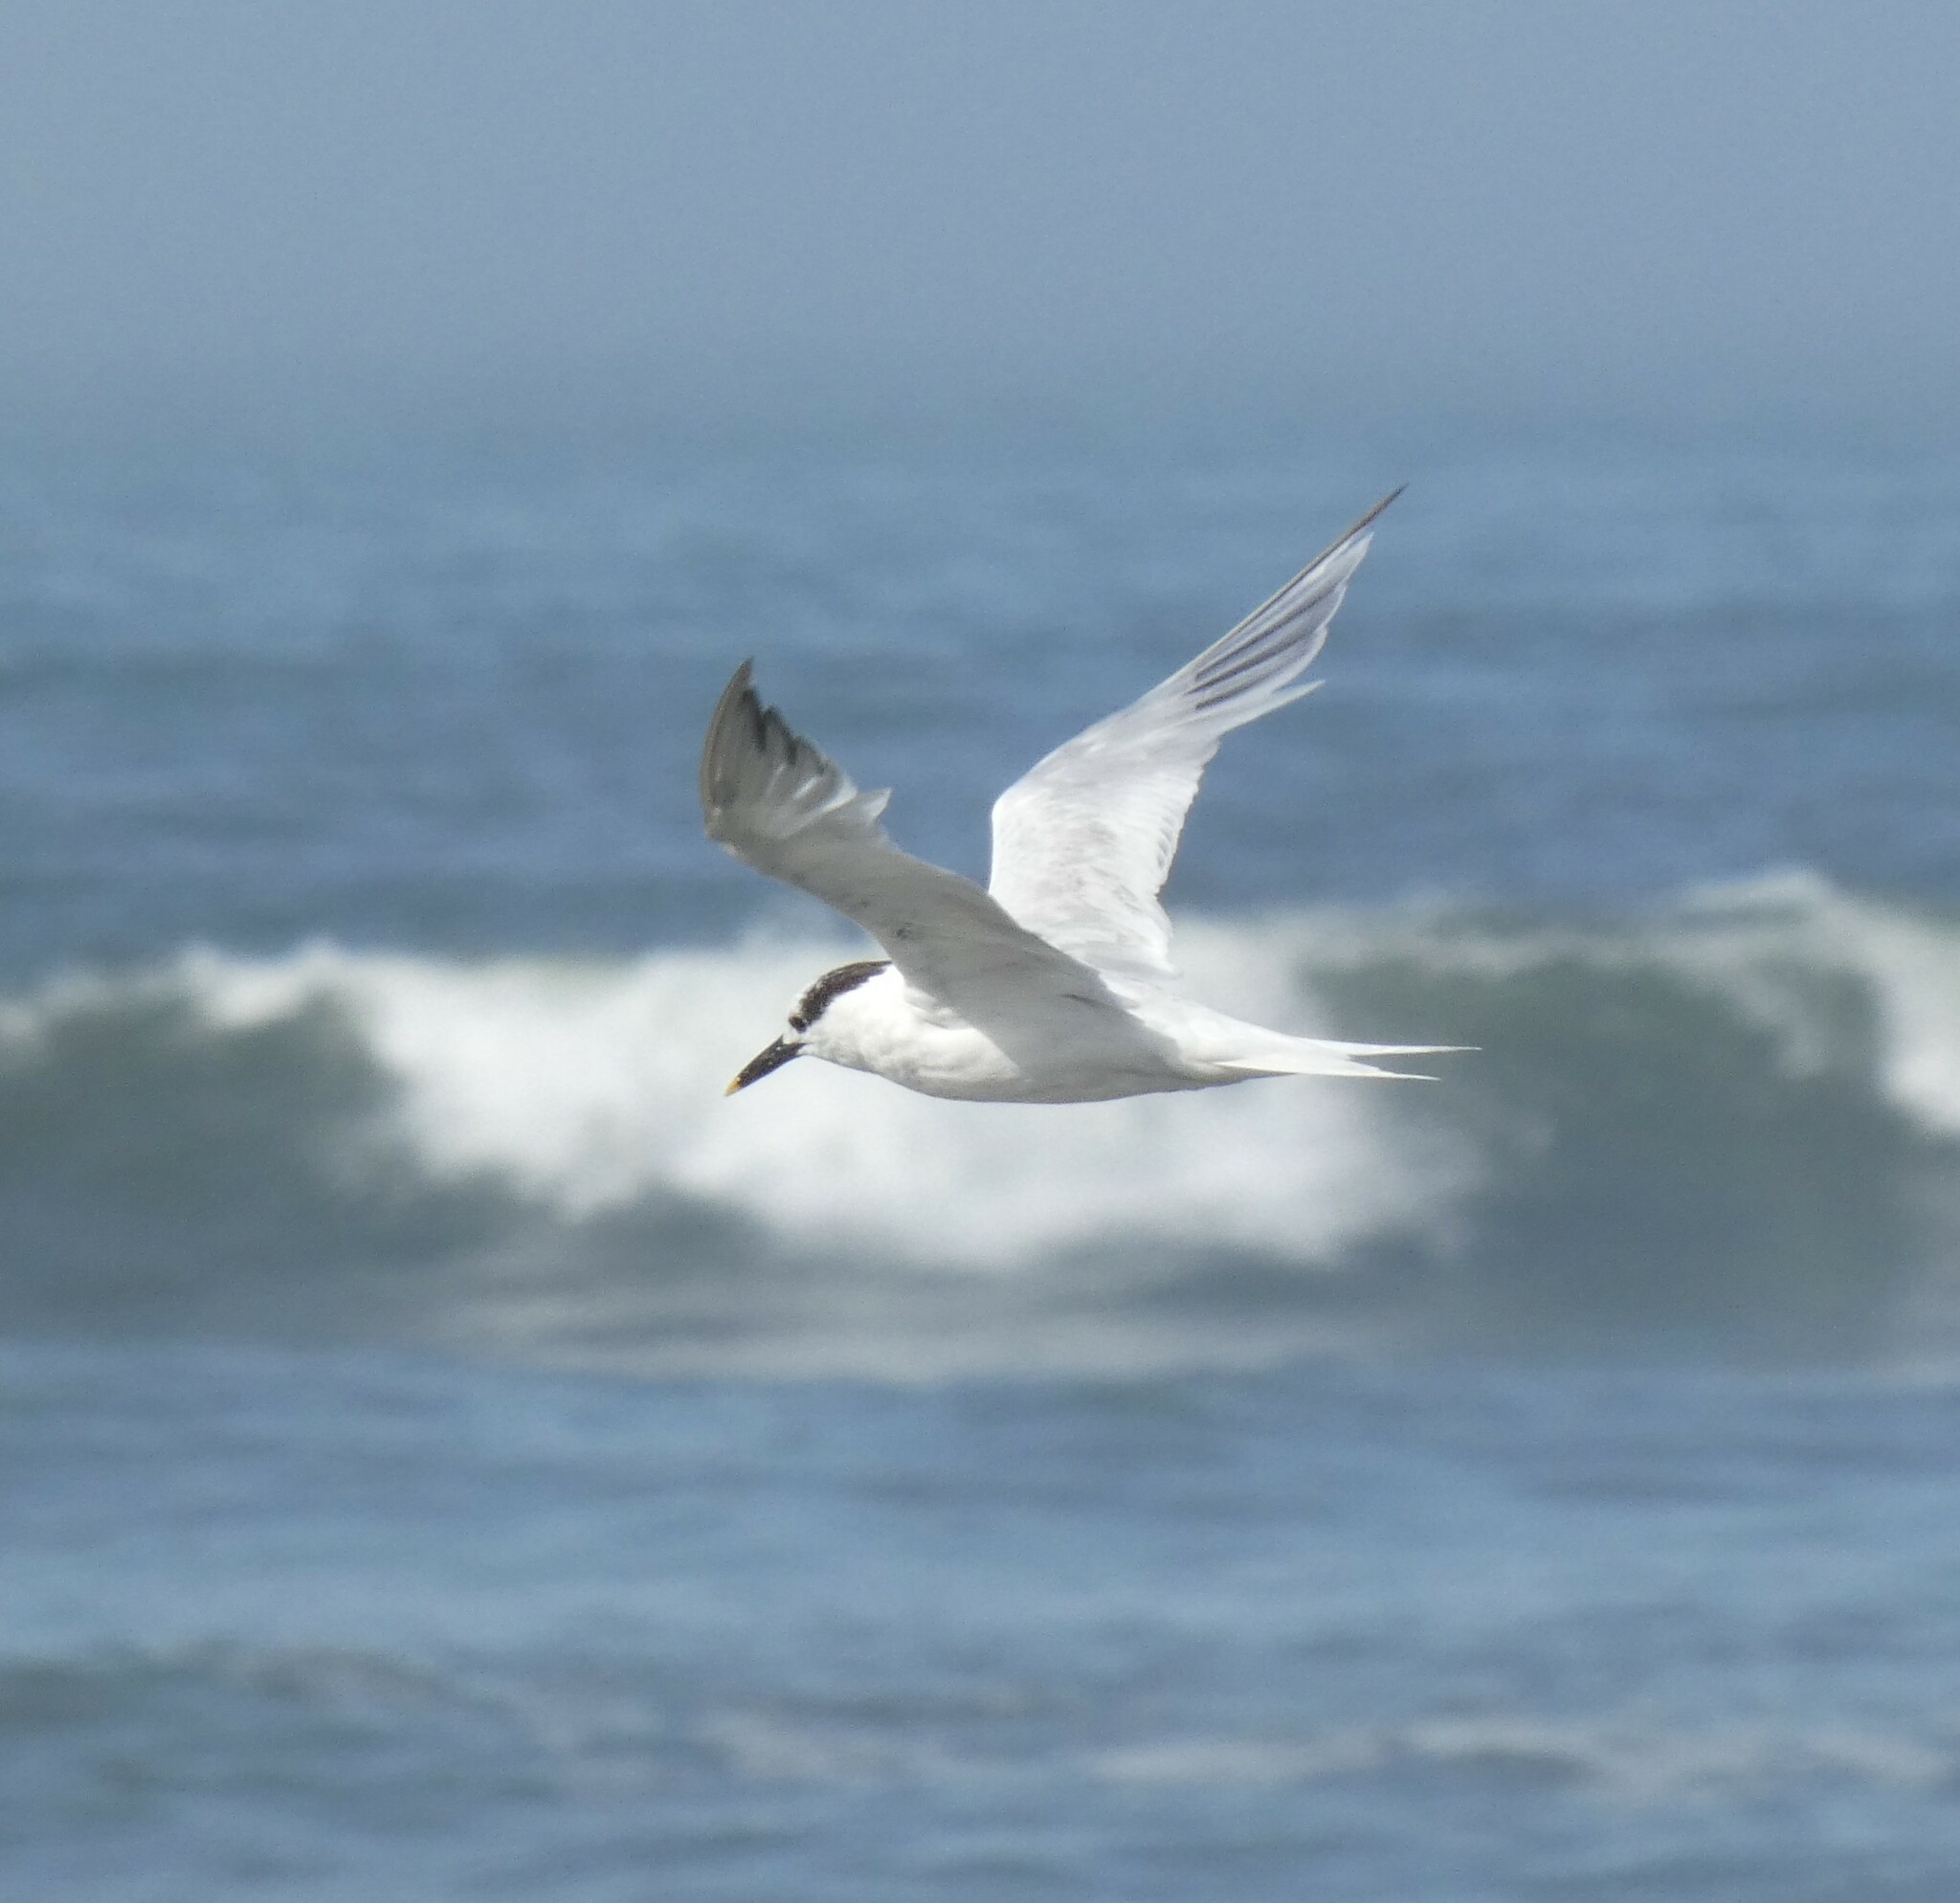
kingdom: Animalia
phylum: Chordata
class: Aves
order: Charadriiformes
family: Laridae
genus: Thalasseus
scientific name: Thalasseus sandvicensis
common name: Sandwich tern
